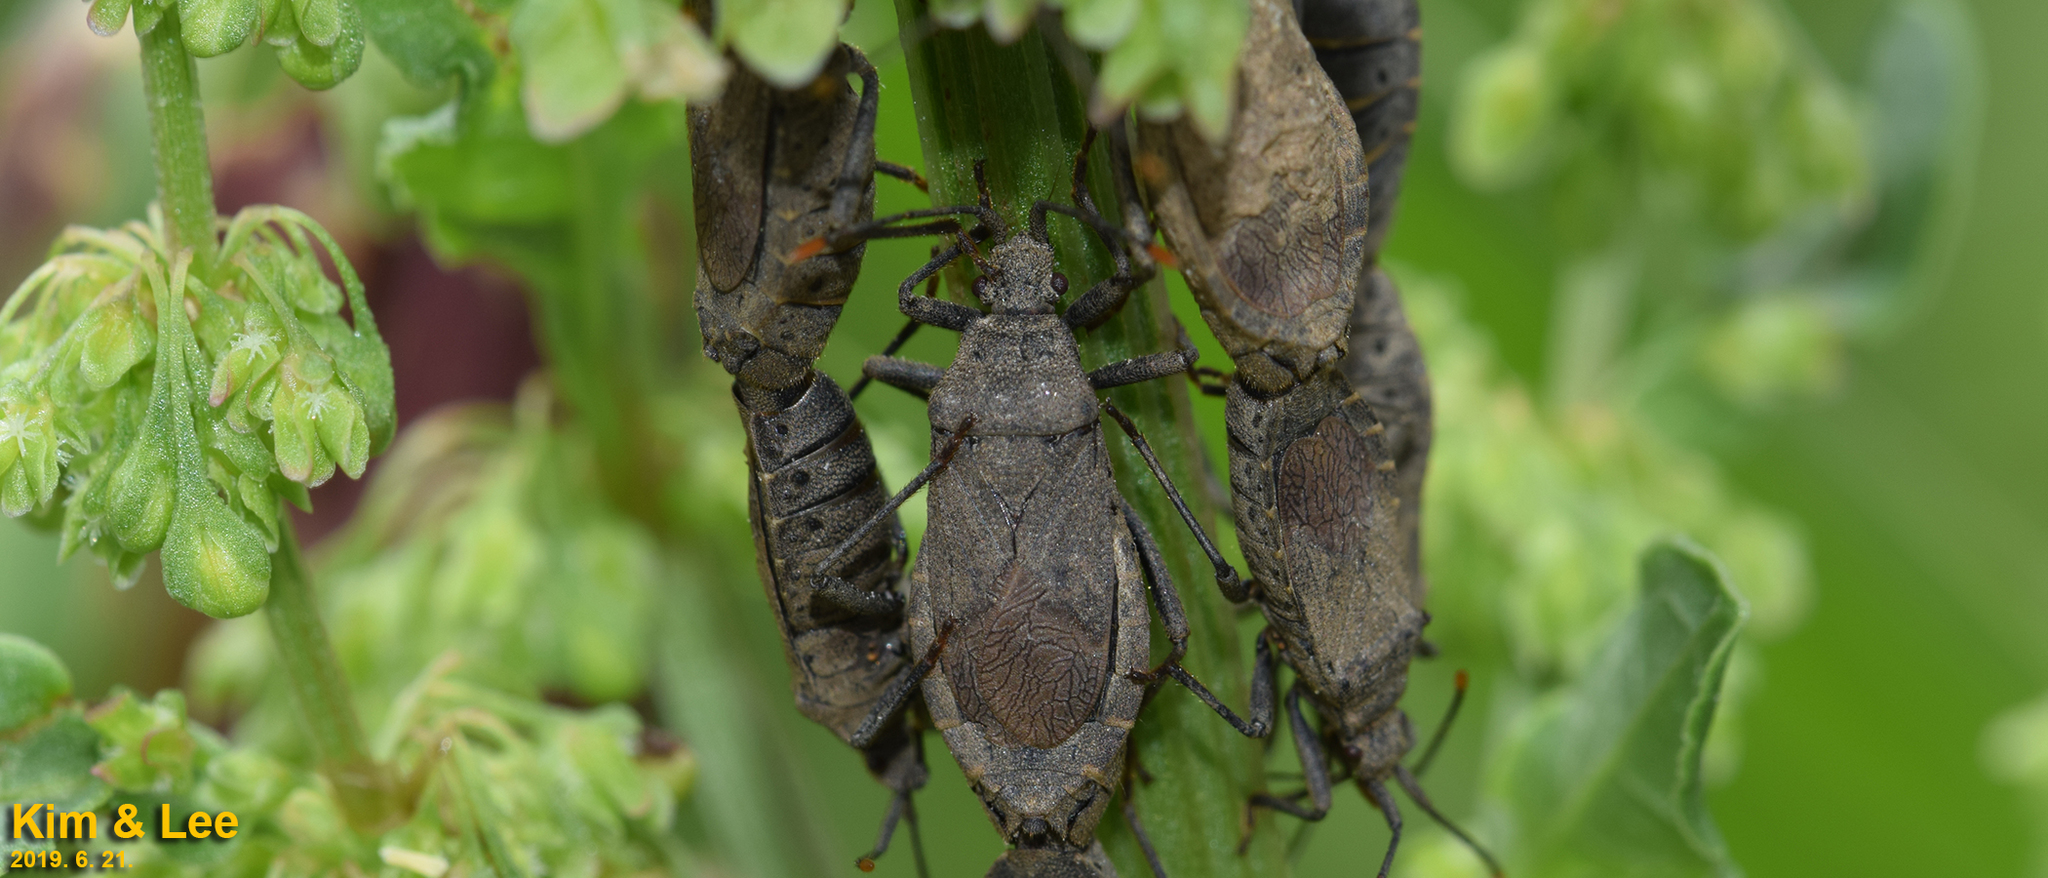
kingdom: Animalia
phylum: Arthropoda
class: Insecta
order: Hemiptera
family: Coreidae
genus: Hygia
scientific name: Hygia lativentris
